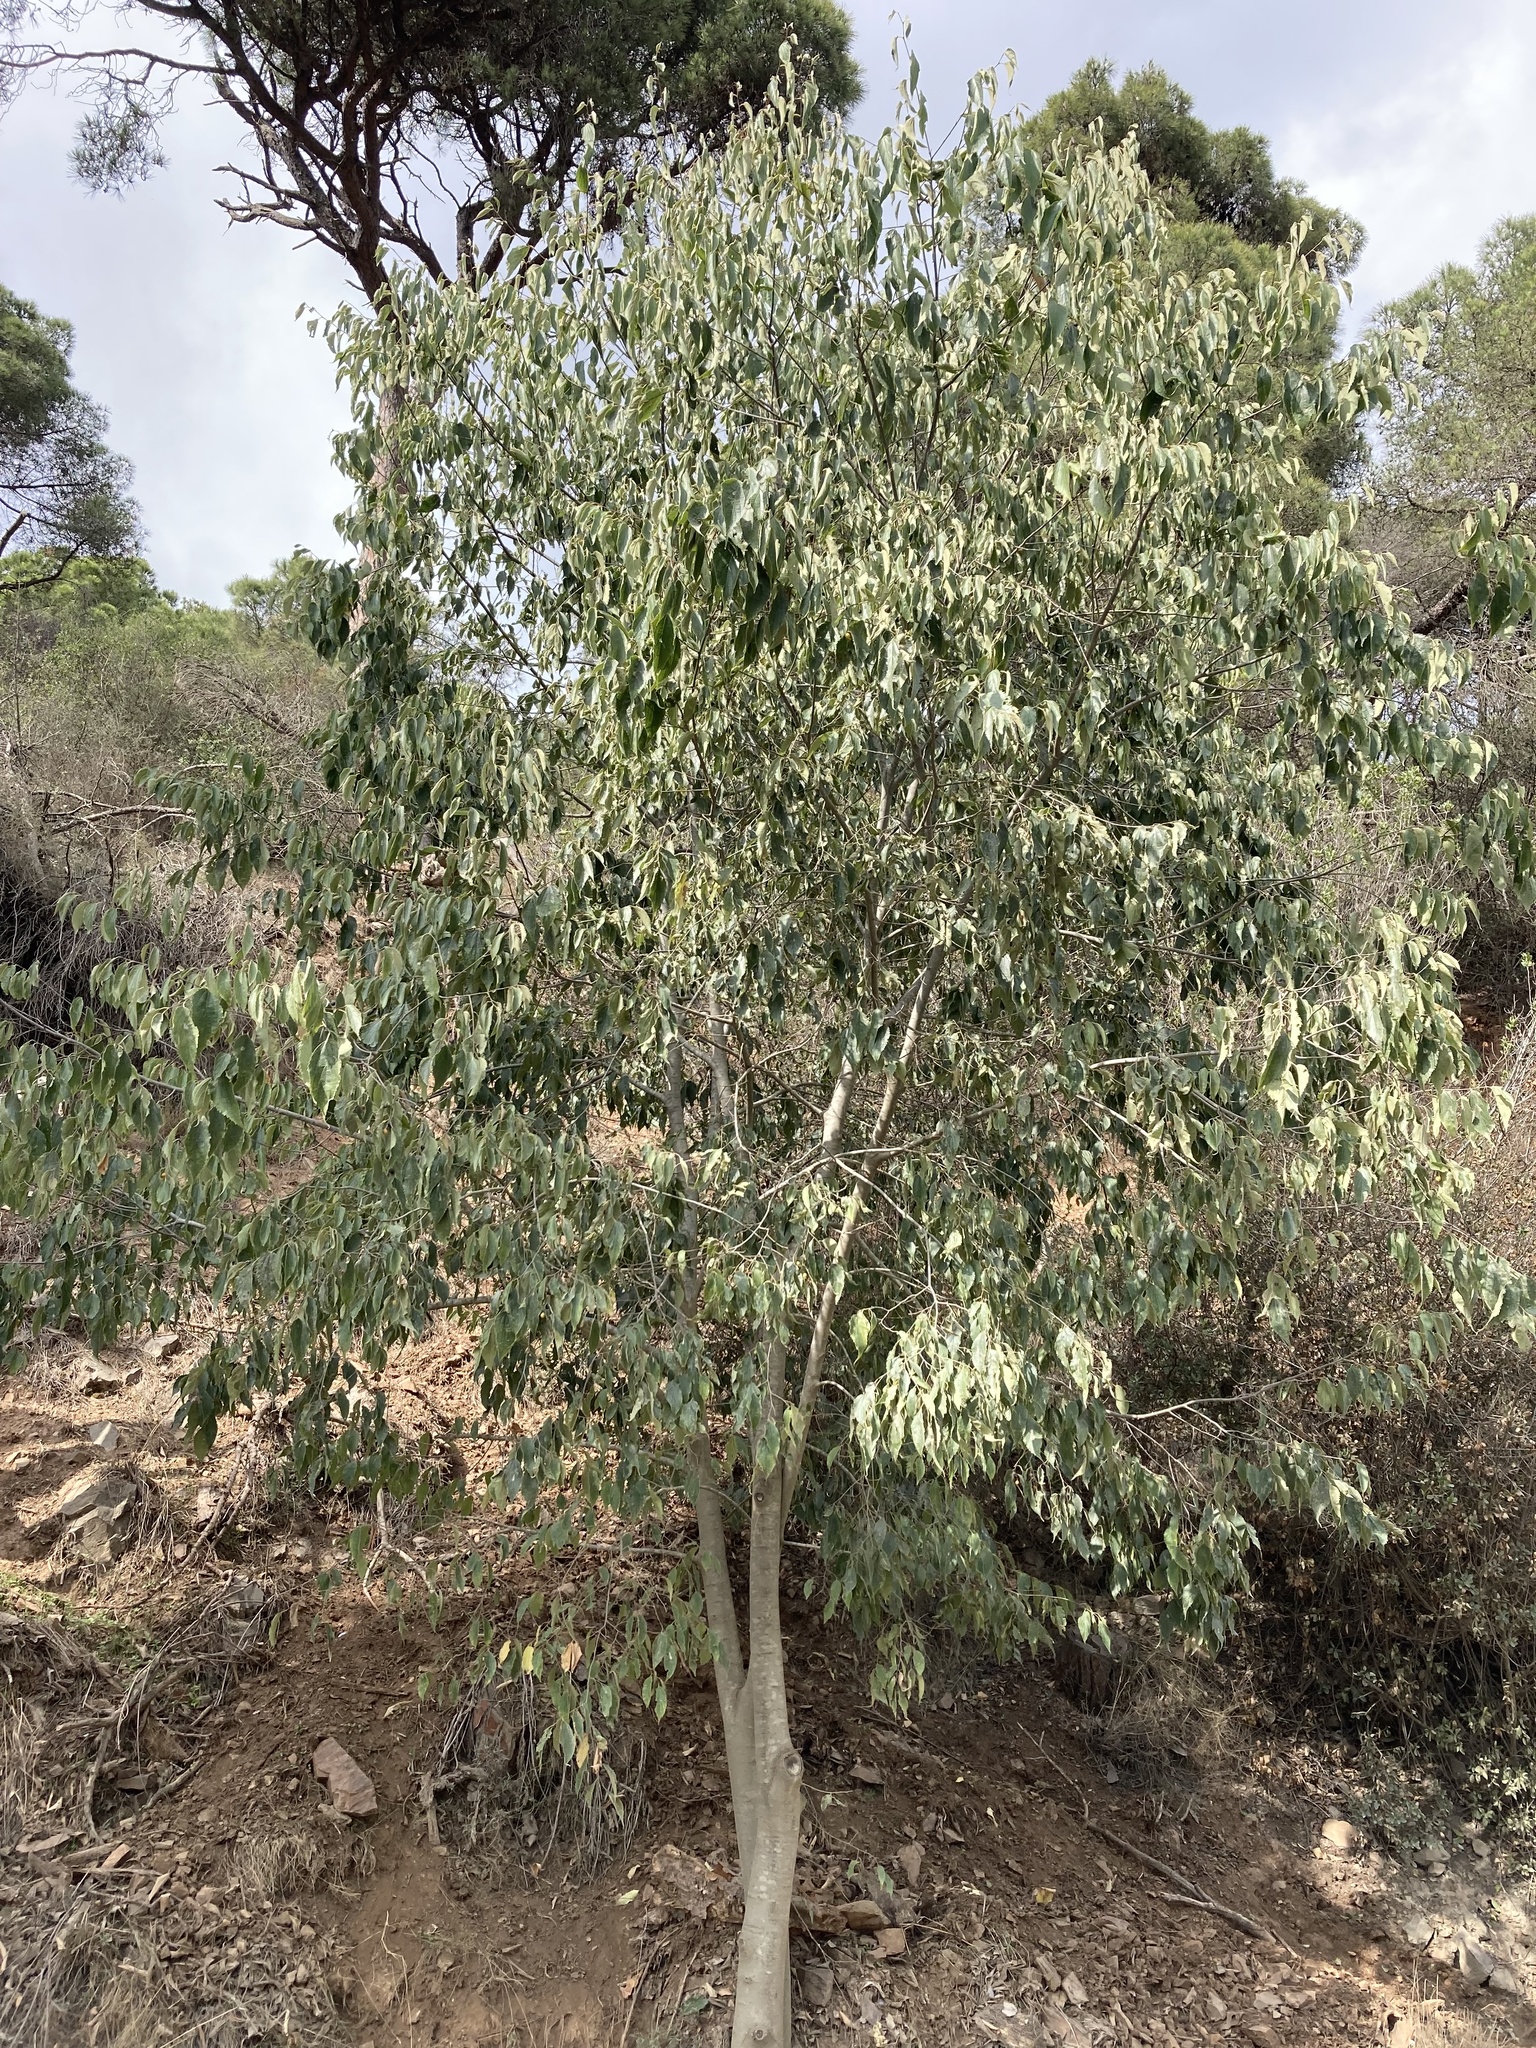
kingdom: Plantae
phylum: Tracheophyta
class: Magnoliopsida
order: Rosales
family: Cannabaceae
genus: Celtis
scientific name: Celtis australis
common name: European hackberry
